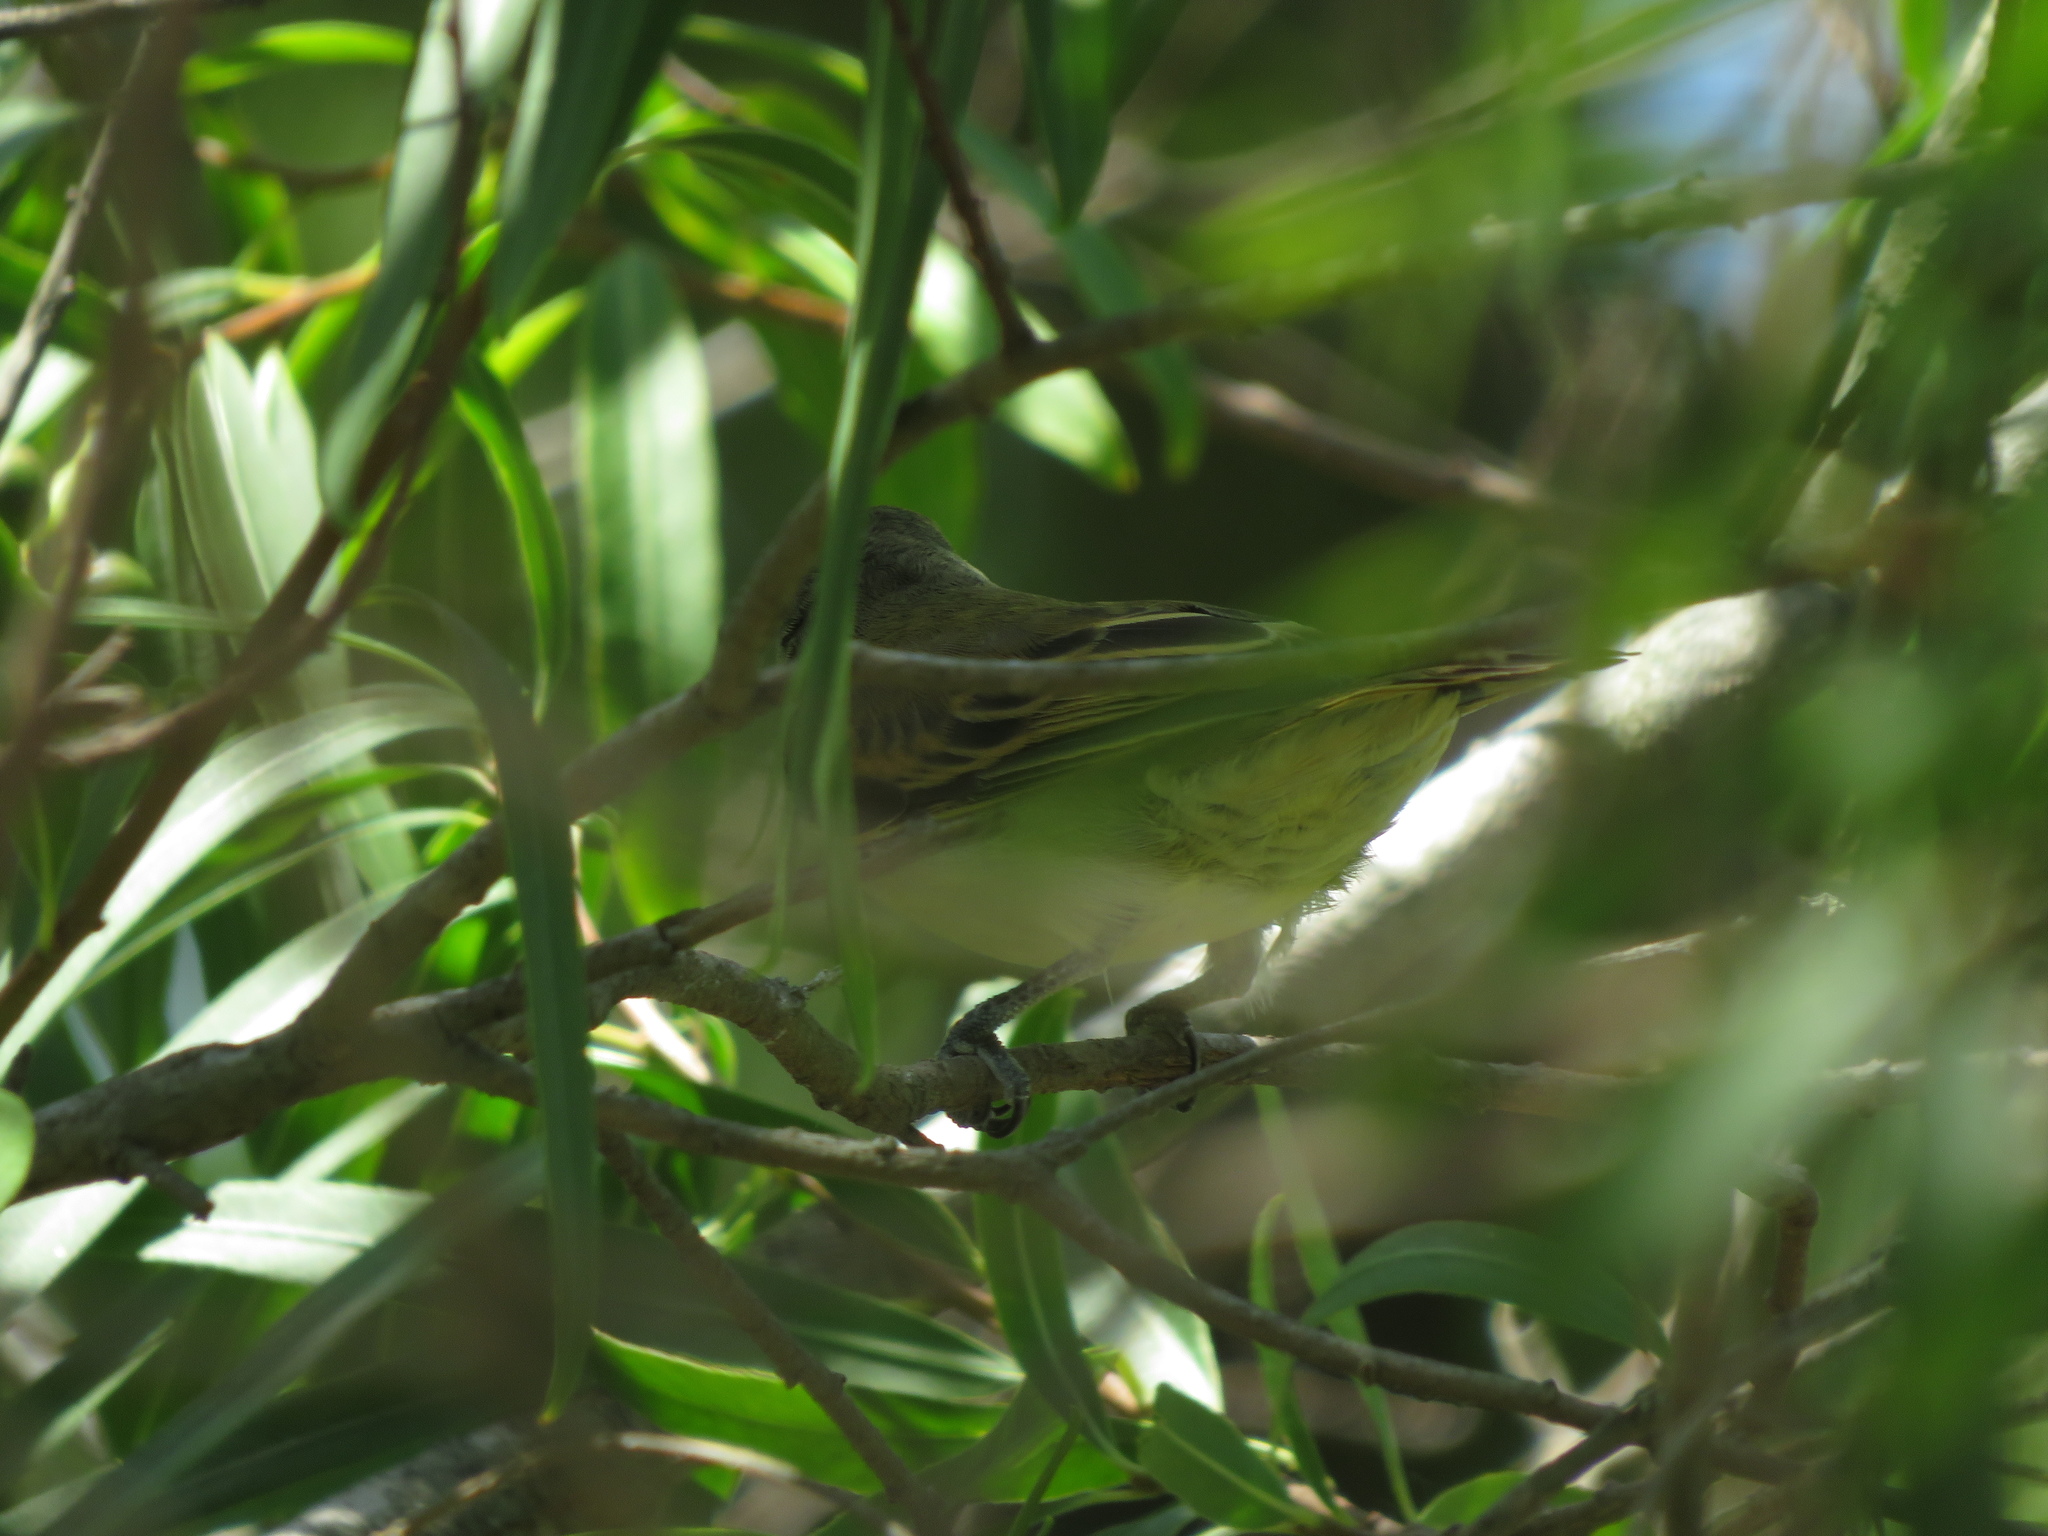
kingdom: Animalia
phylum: Chordata
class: Aves
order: Passeriformes
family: Cotingidae
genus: Pachyramphus
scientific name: Pachyramphus polychopterus
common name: White-winged becard
